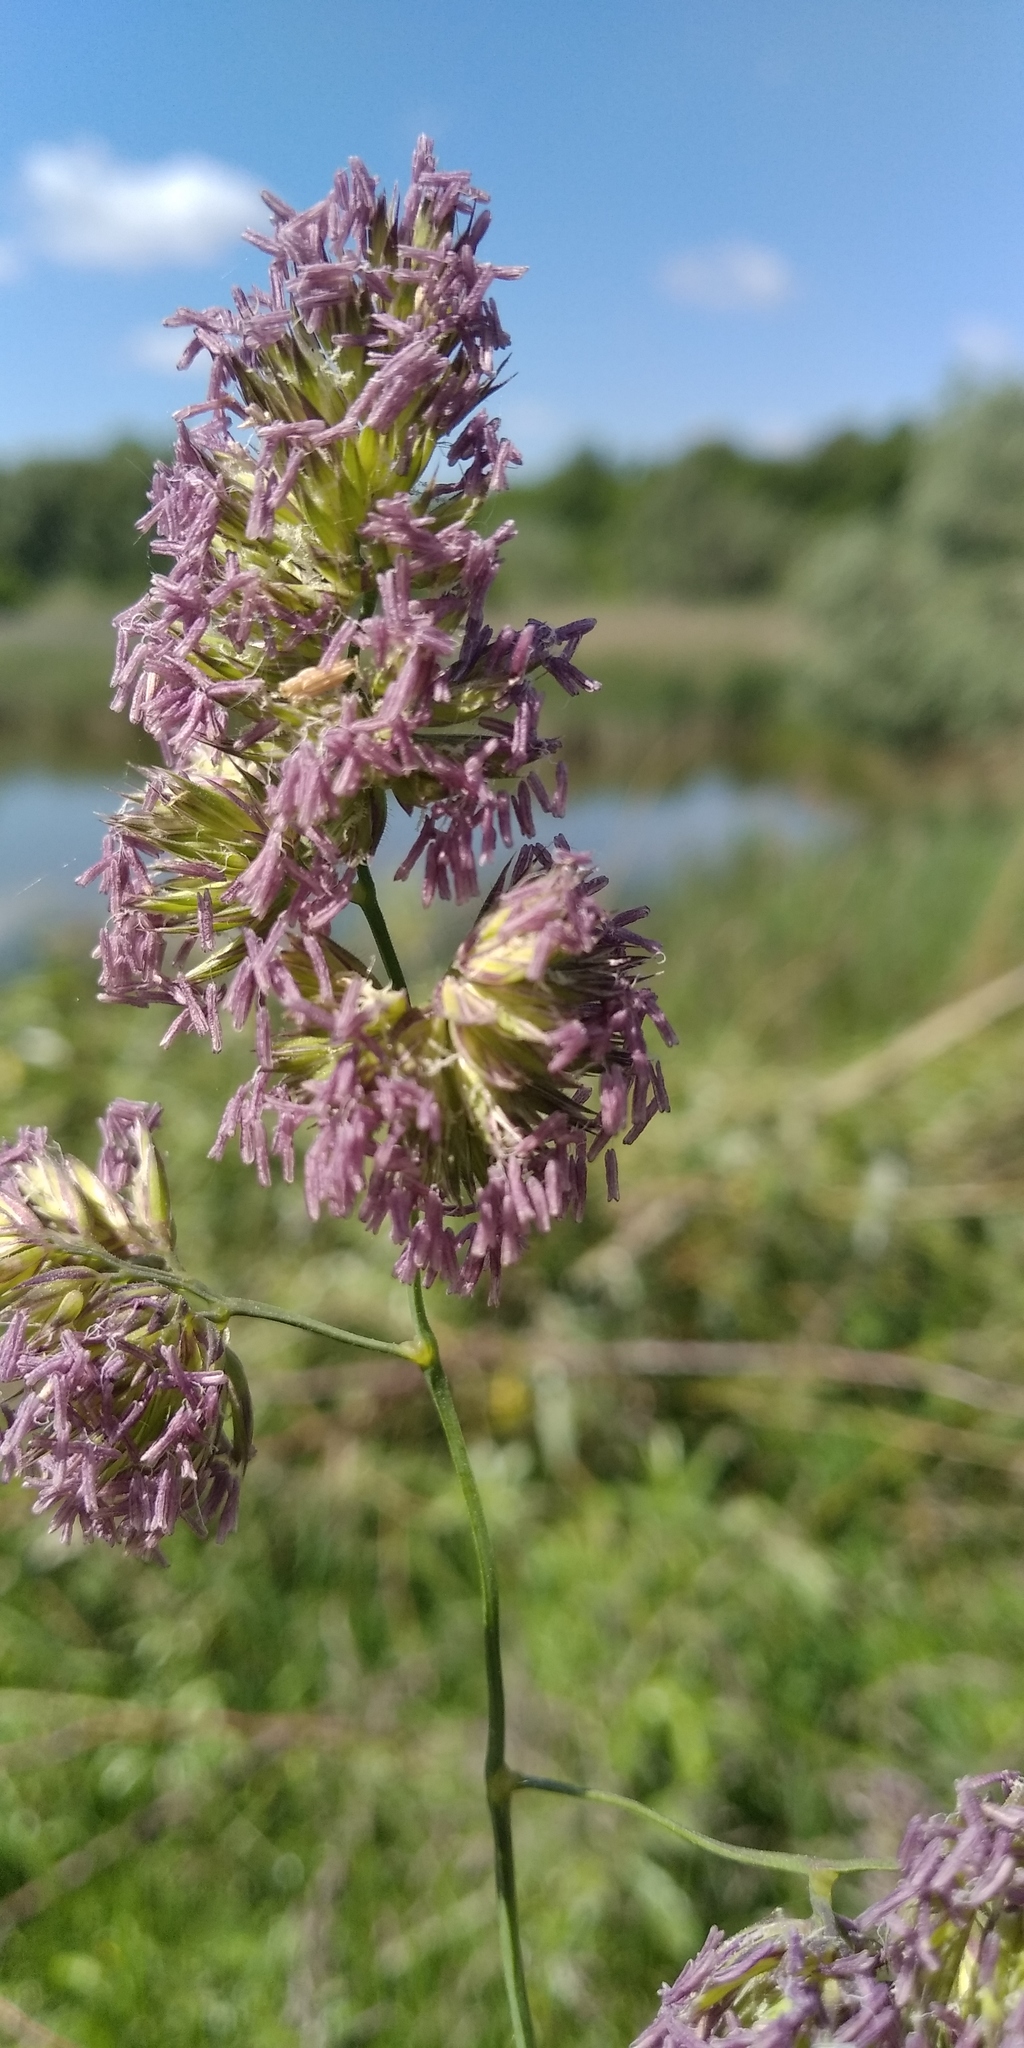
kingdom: Plantae
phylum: Tracheophyta
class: Magnoliopsida
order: Lamiales
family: Lamiaceae
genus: Ajuga
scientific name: Ajuga genevensis
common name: Blue bugle
